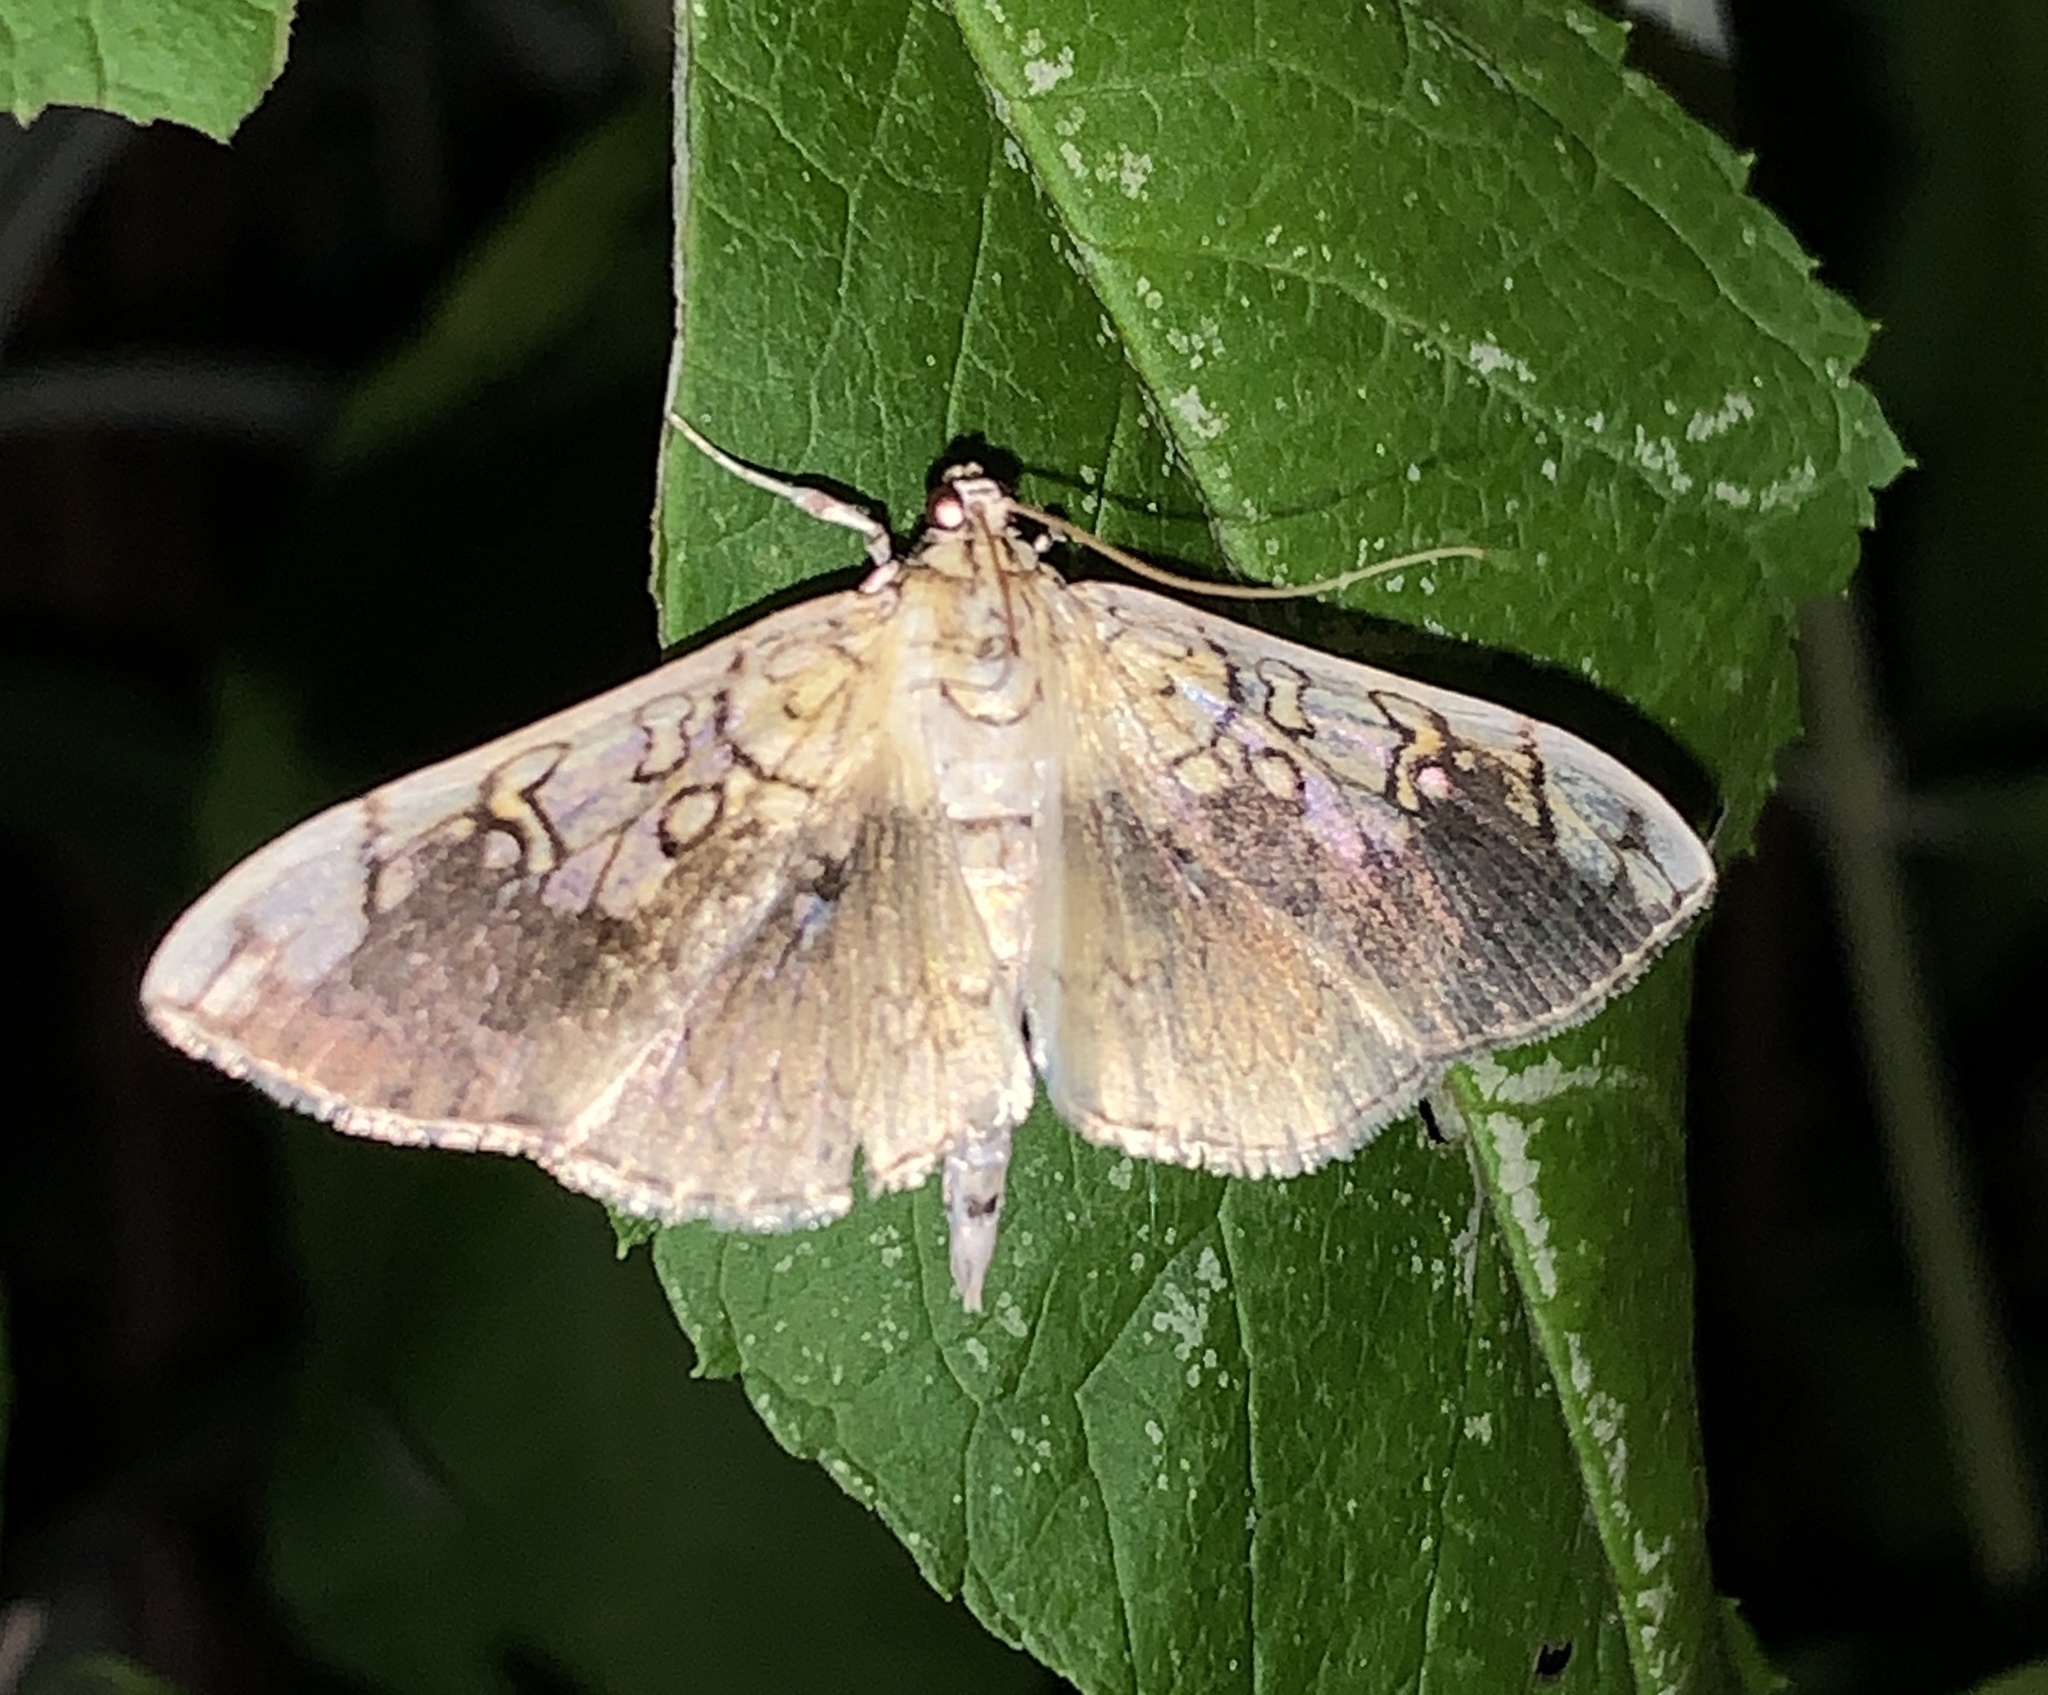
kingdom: Animalia
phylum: Arthropoda
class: Insecta
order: Lepidoptera
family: Crambidae
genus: Pantographa
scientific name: Pantographa limata
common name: Basswood leafroller moth
